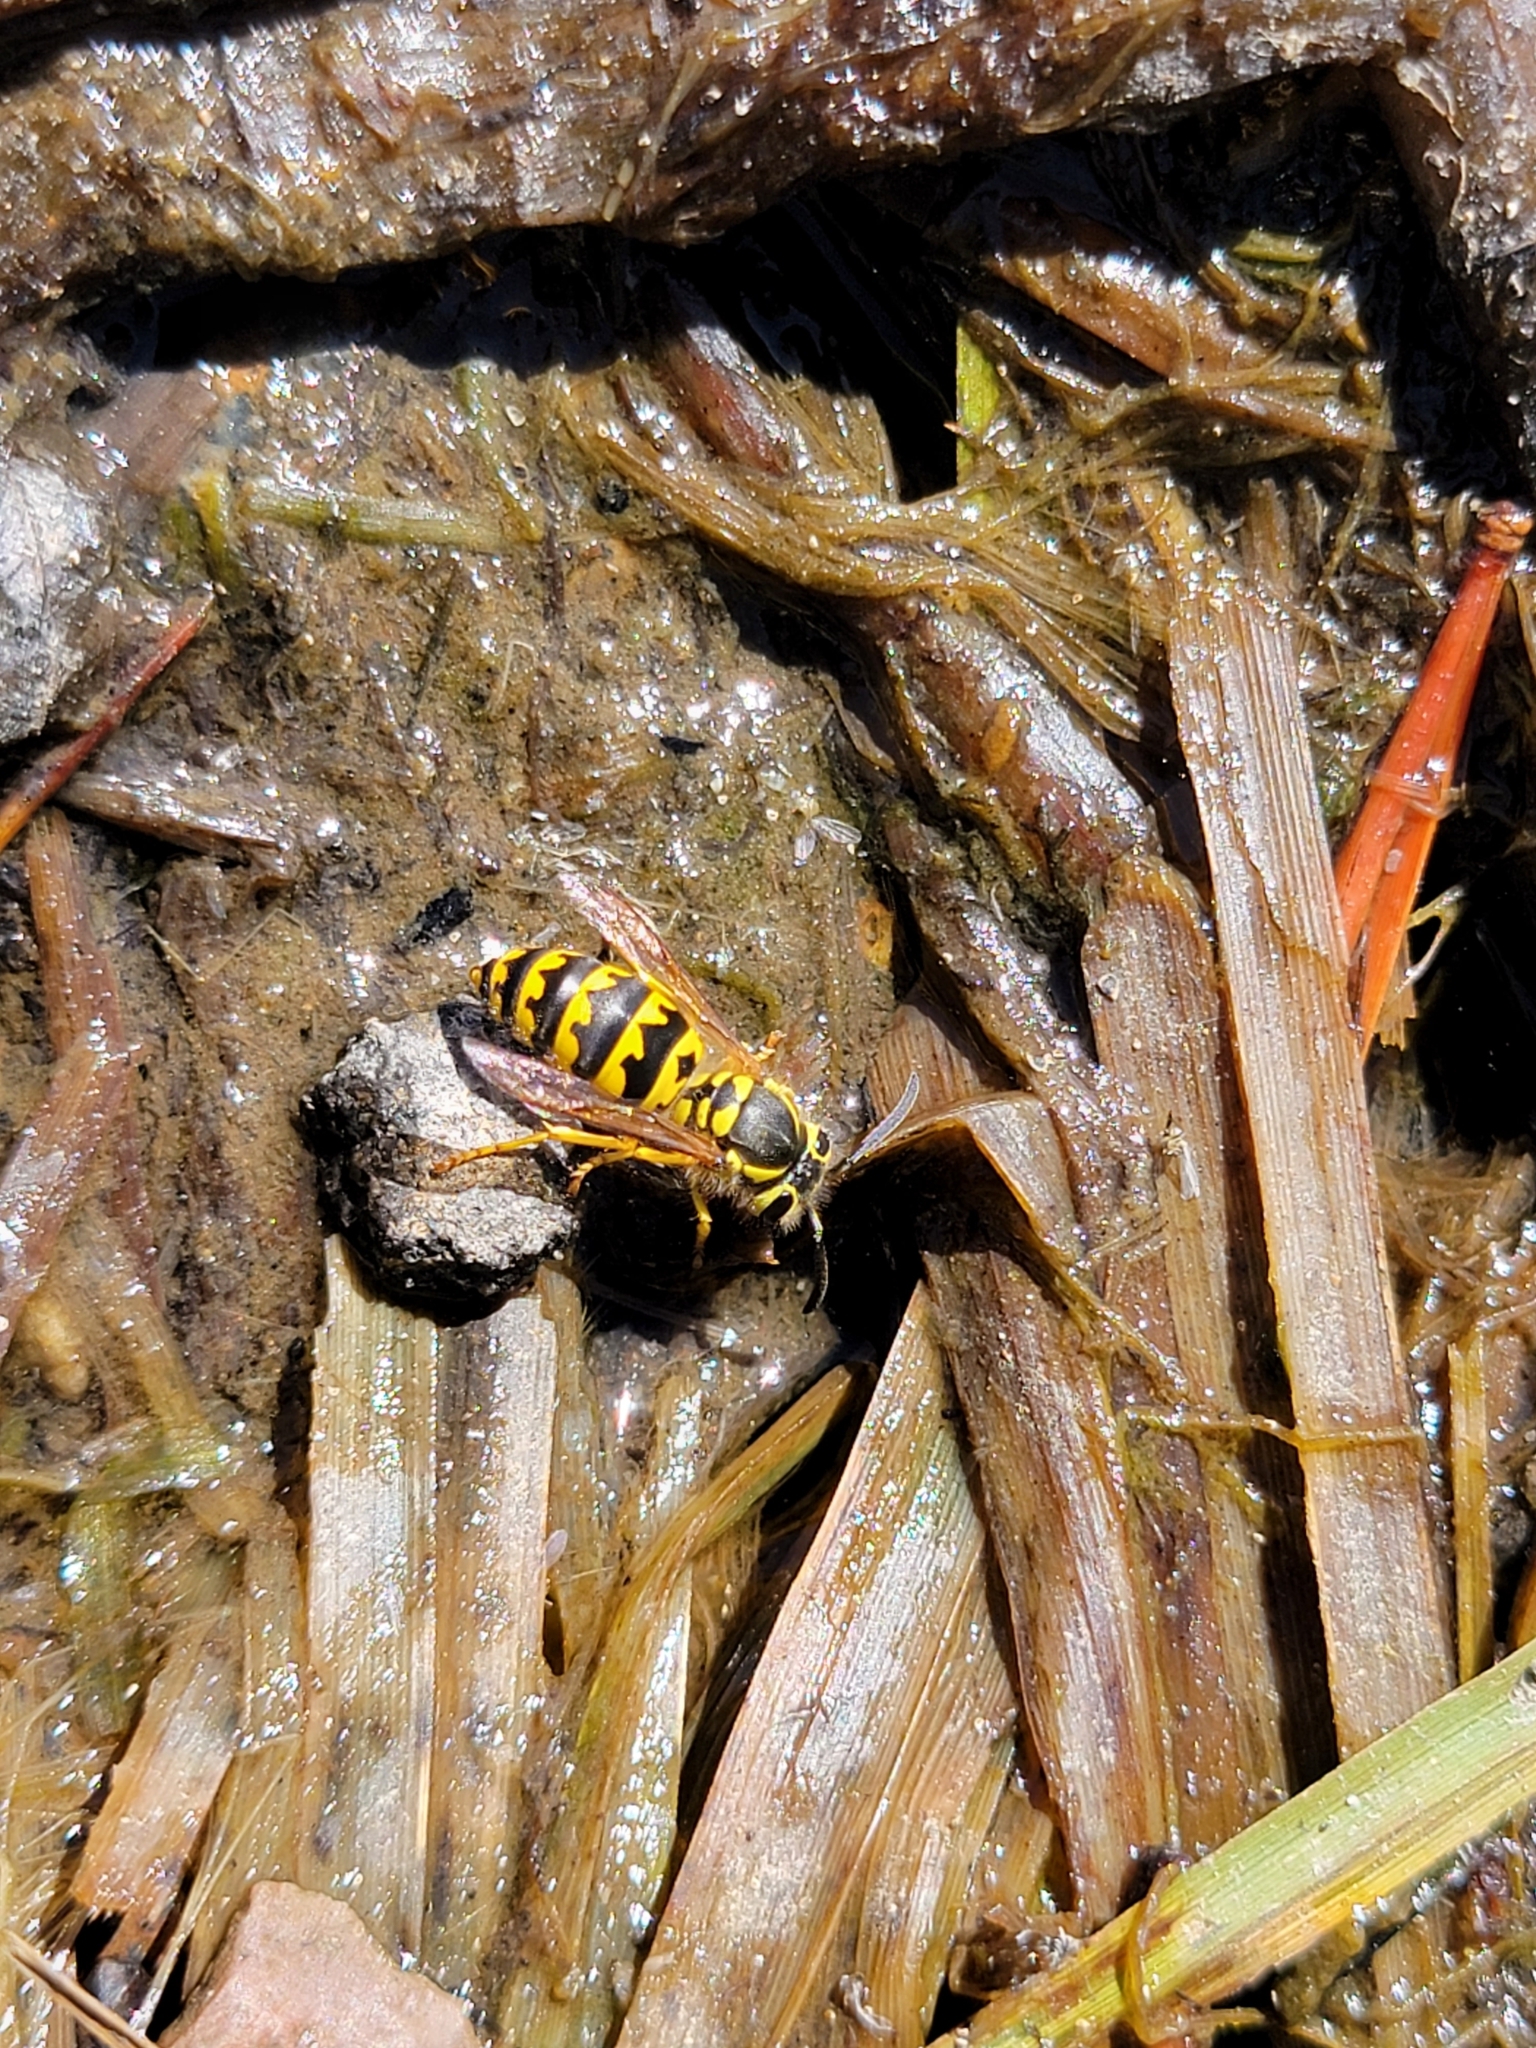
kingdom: Animalia
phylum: Arthropoda
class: Insecta
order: Hymenoptera
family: Vespidae
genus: Vespula
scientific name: Vespula pensylvanica
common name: Western yellowjacket
